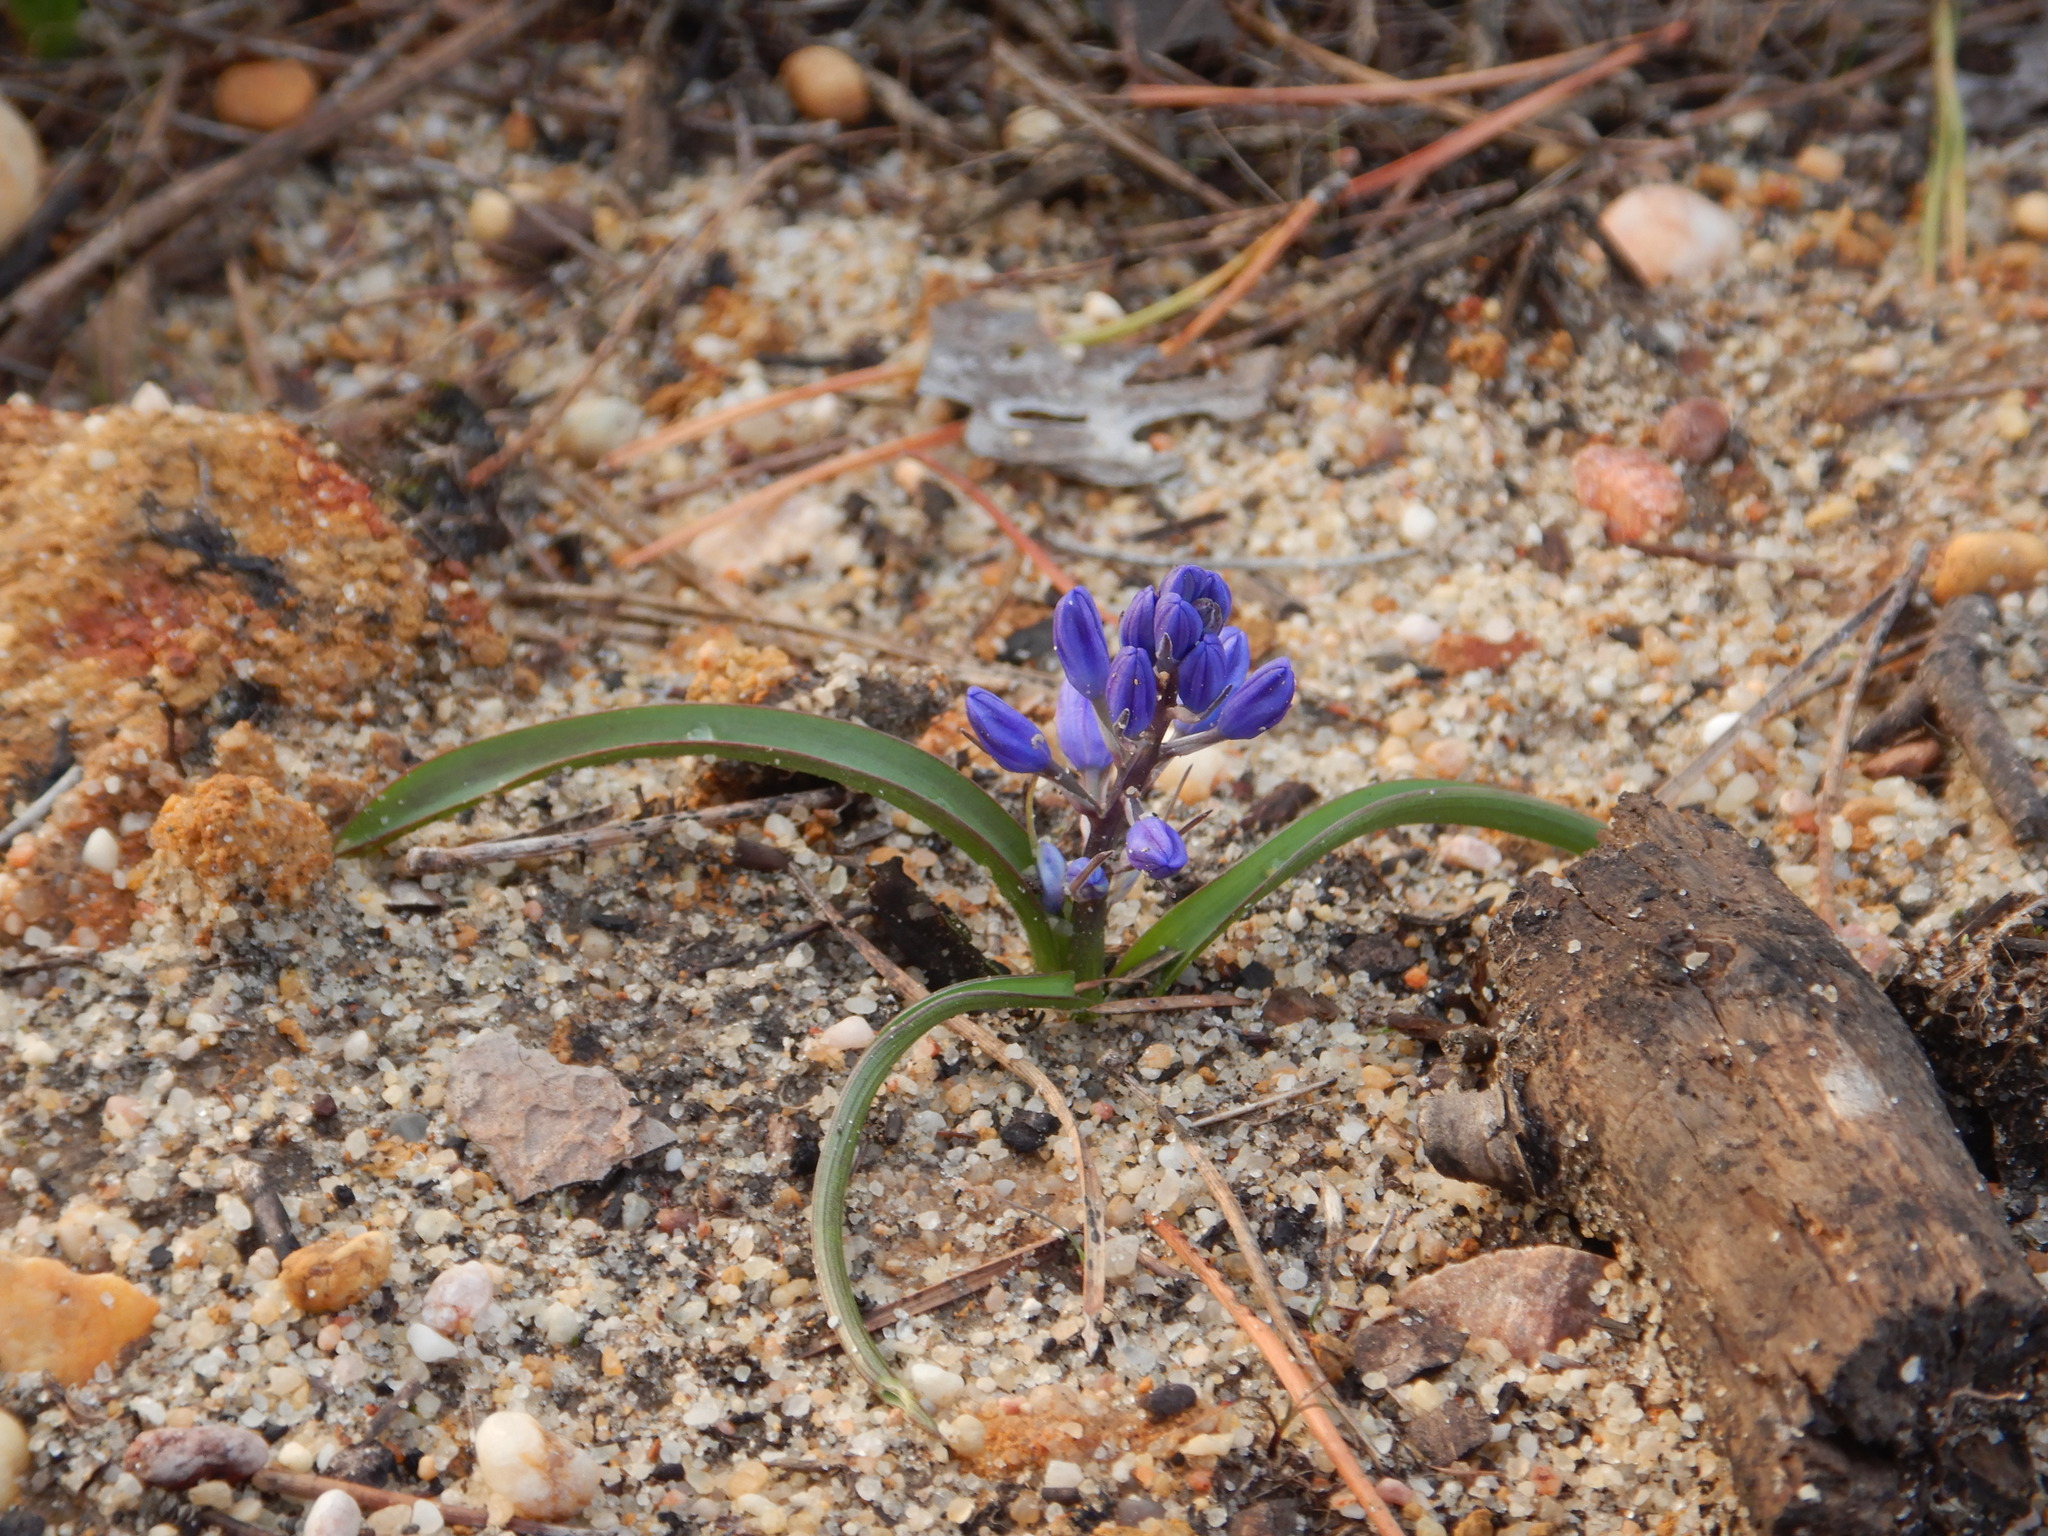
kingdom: Plantae
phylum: Tracheophyta
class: Liliopsida
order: Asparagales
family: Asparagaceae
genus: Scilla
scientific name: Scilla verna
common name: Spring squill
